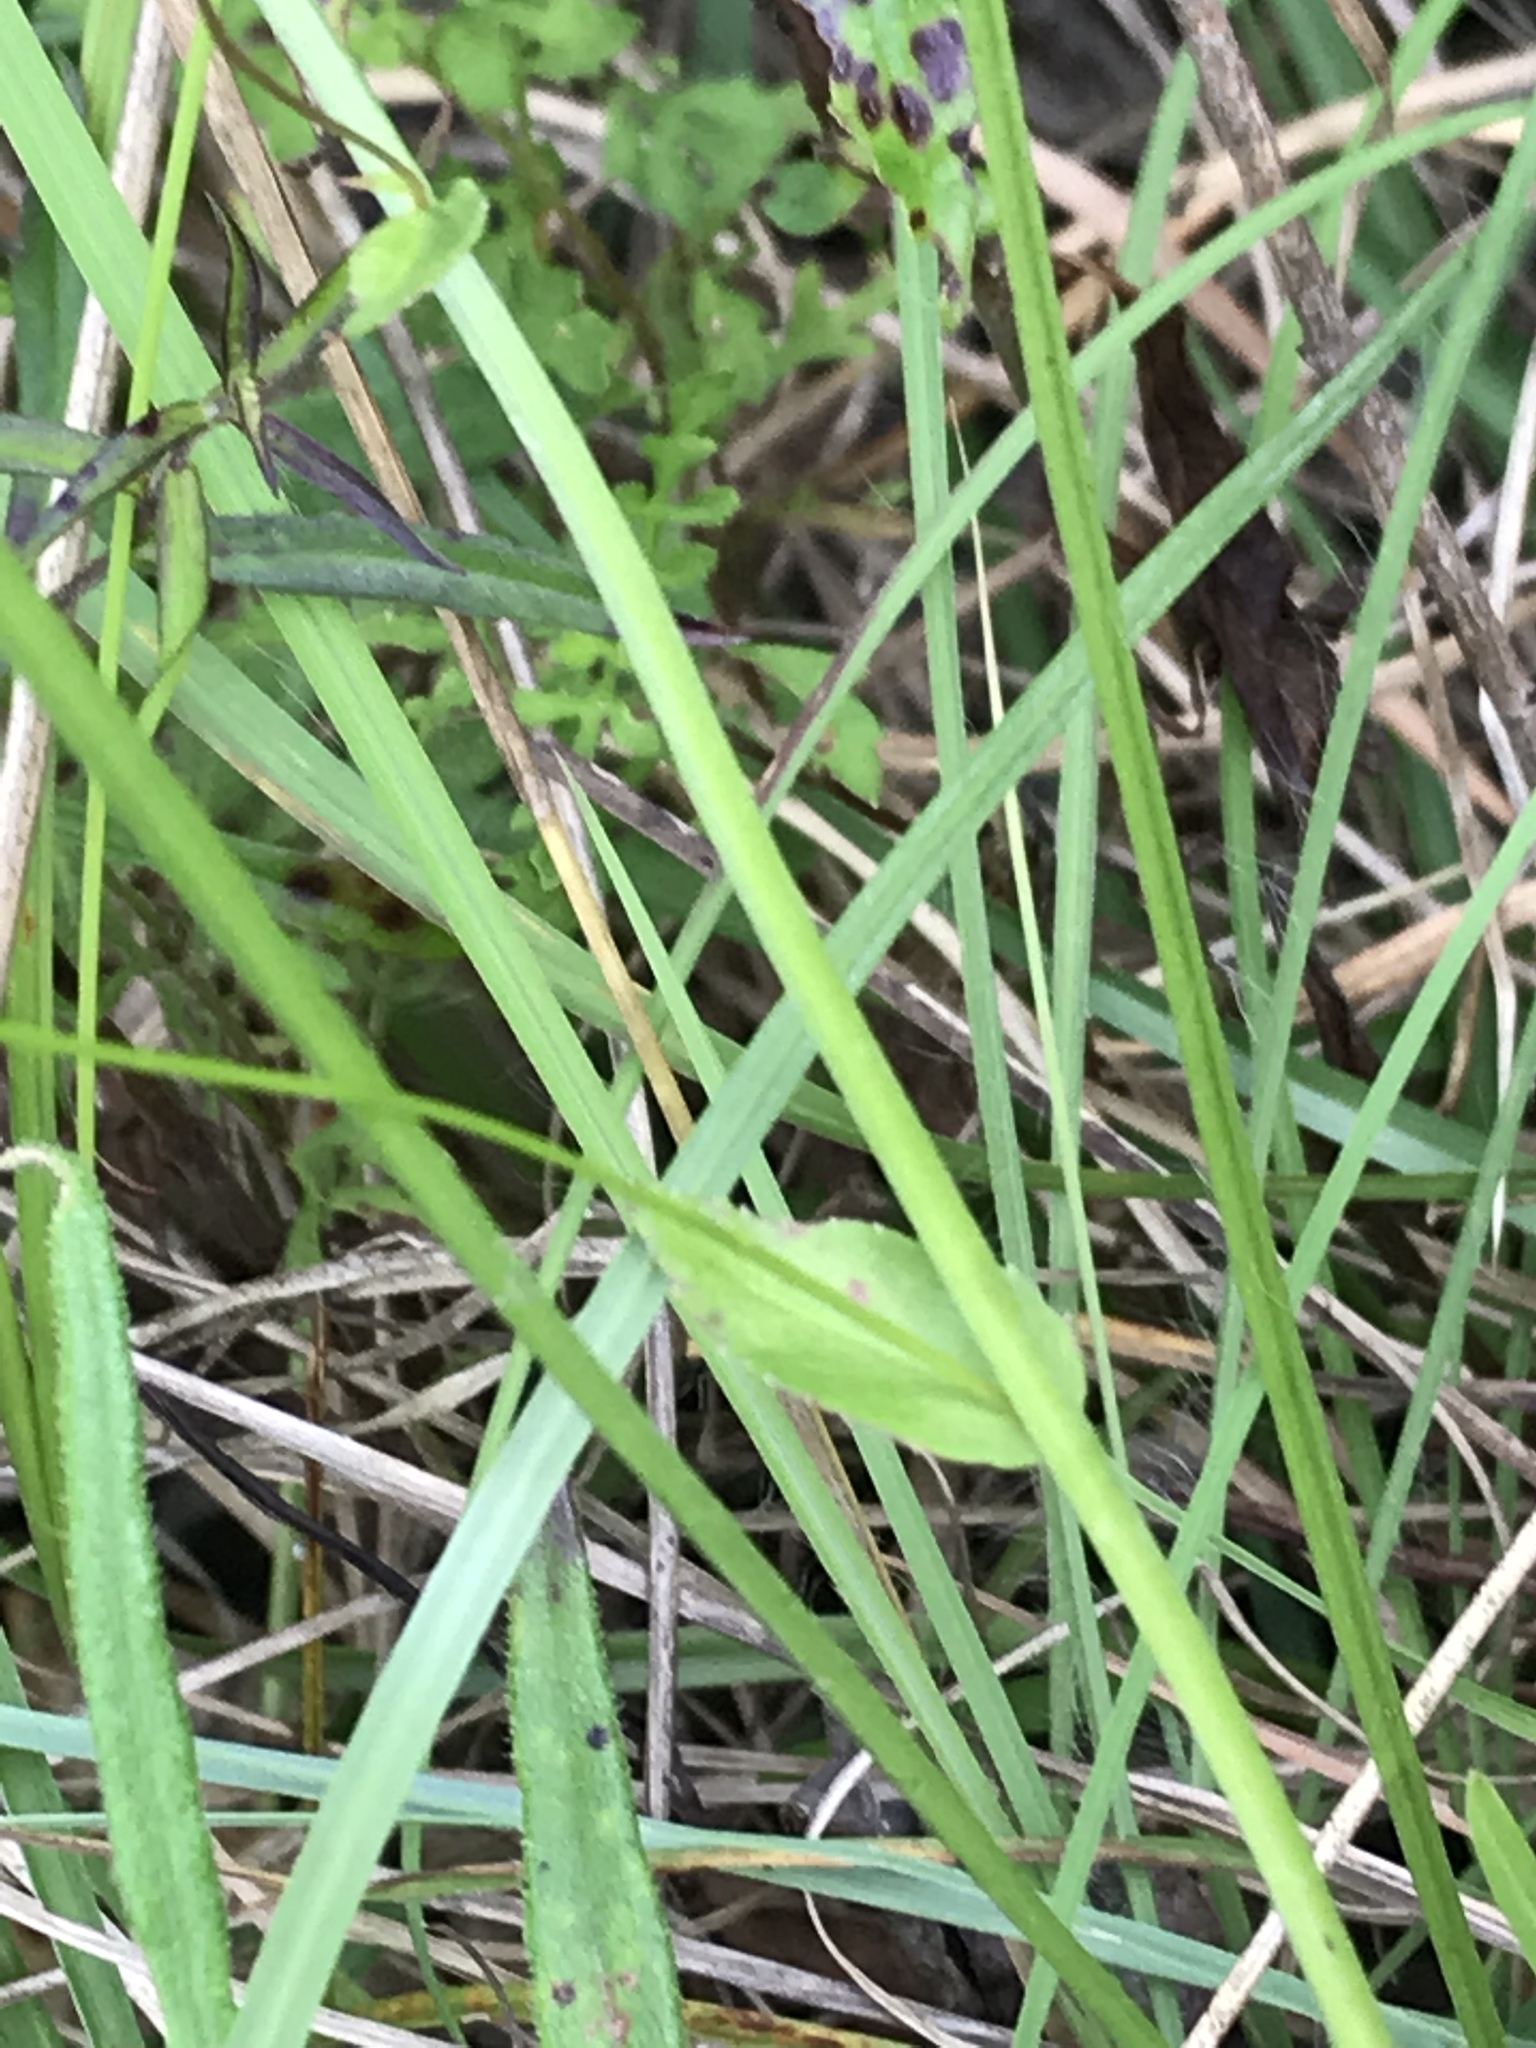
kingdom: Plantae
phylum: Tracheophyta
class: Magnoliopsida
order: Asterales
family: Campanulaceae
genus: Lobelia
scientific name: Lobelia appendiculata
